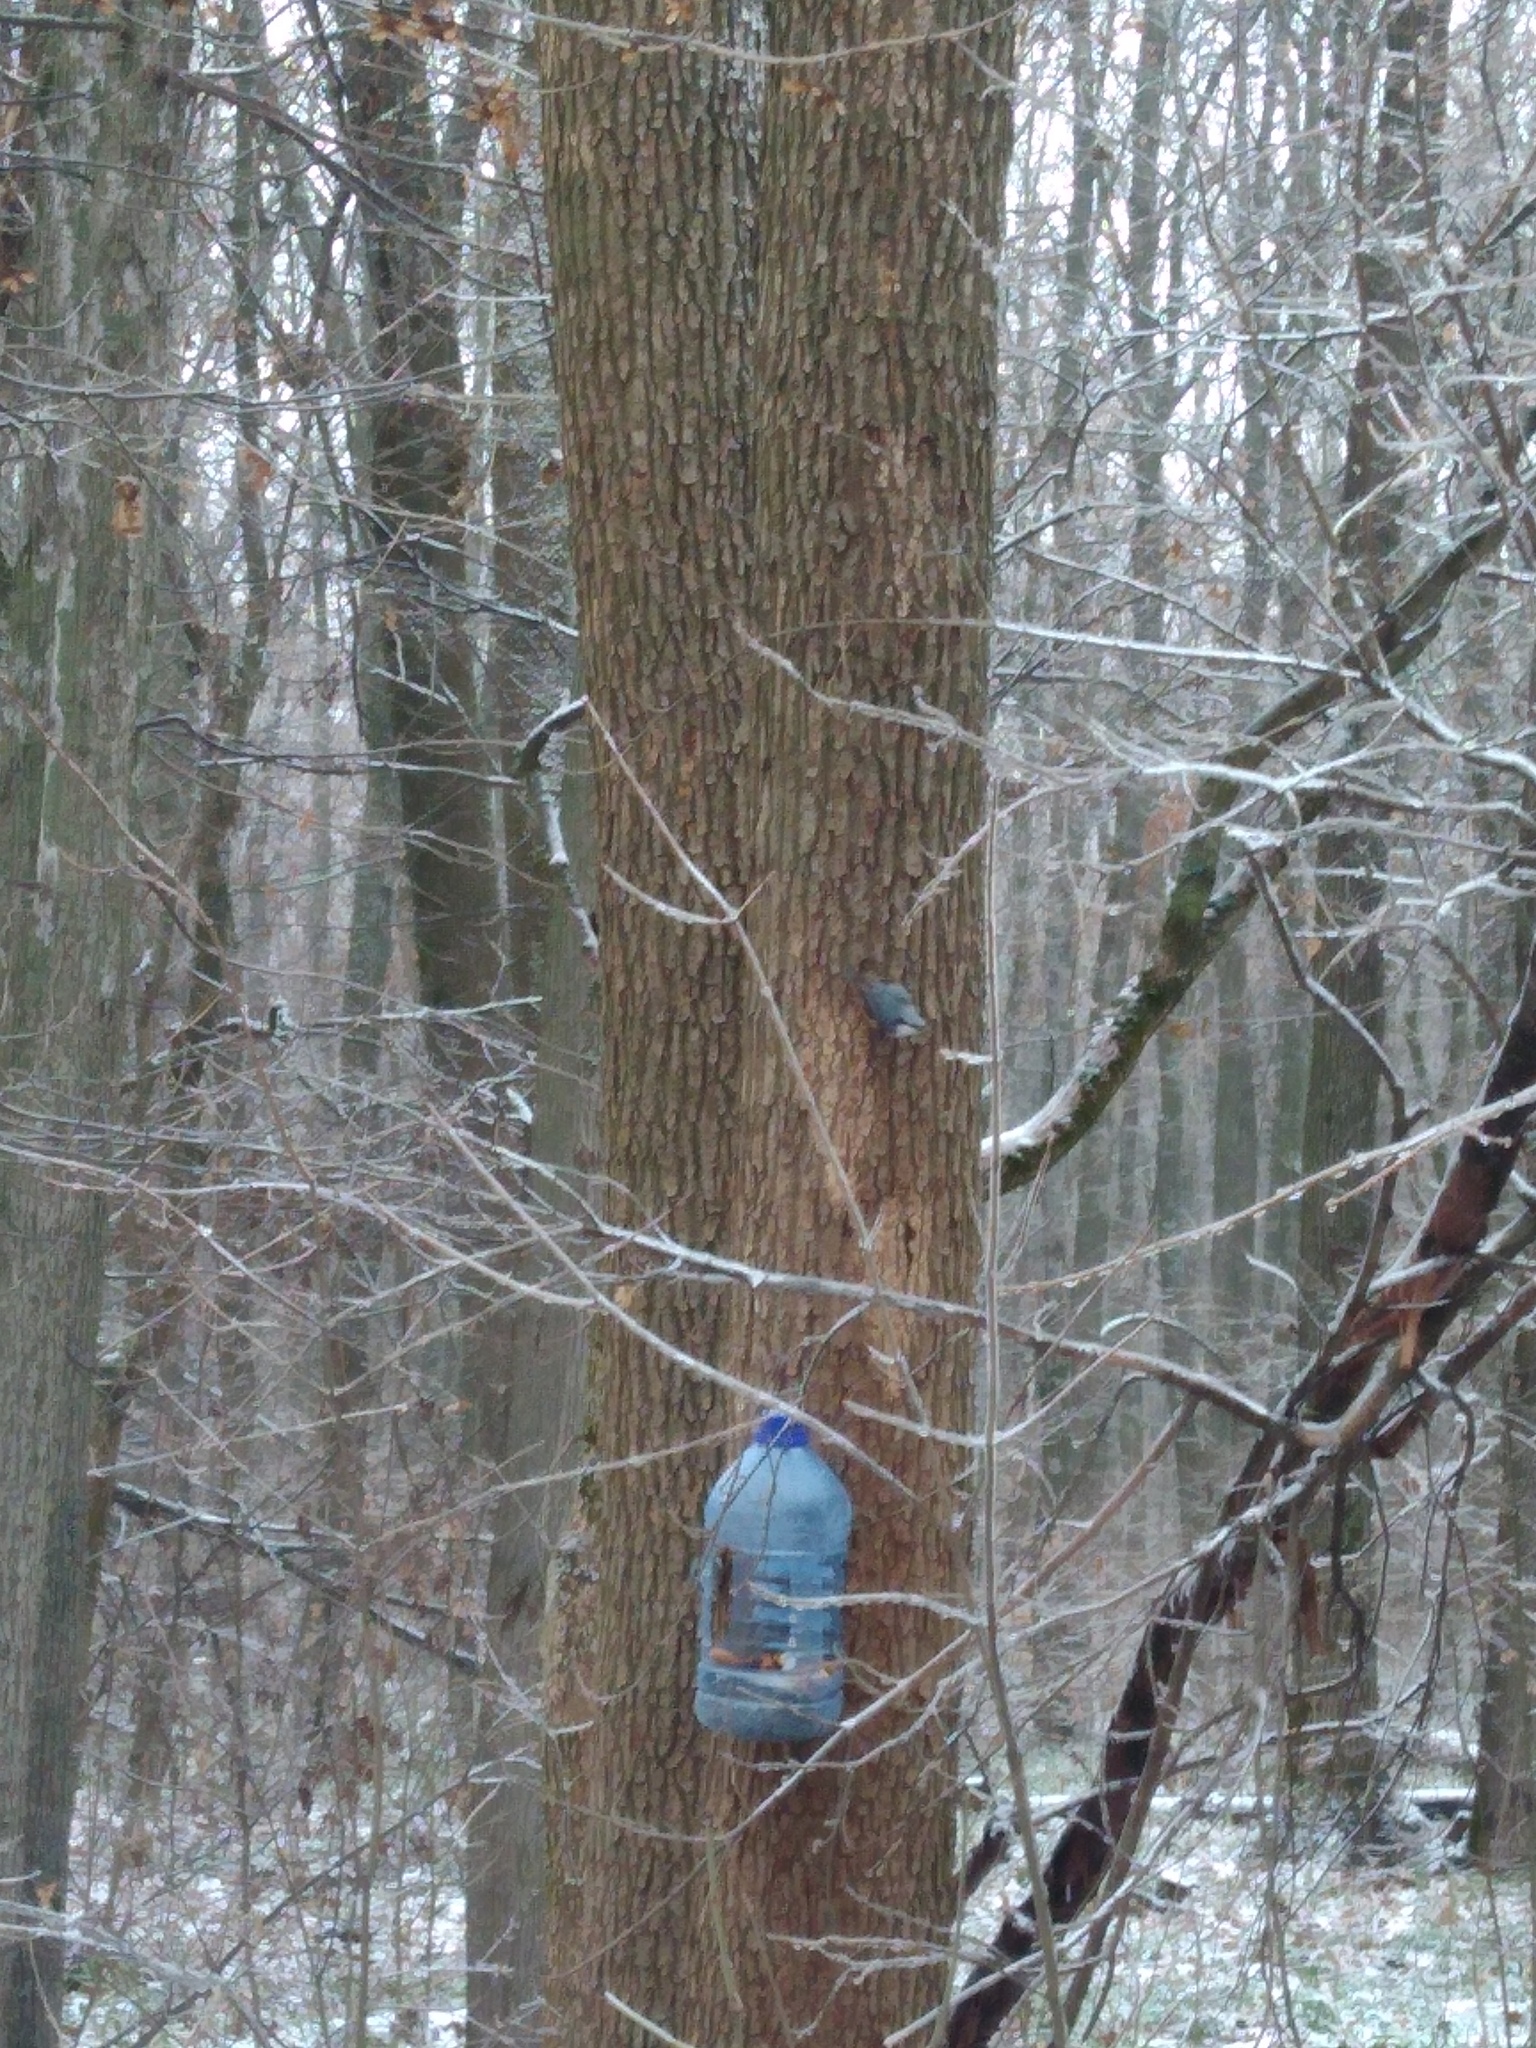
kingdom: Animalia
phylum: Chordata
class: Aves
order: Passeriformes
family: Sittidae
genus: Sitta
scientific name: Sitta europaea
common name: Eurasian nuthatch
